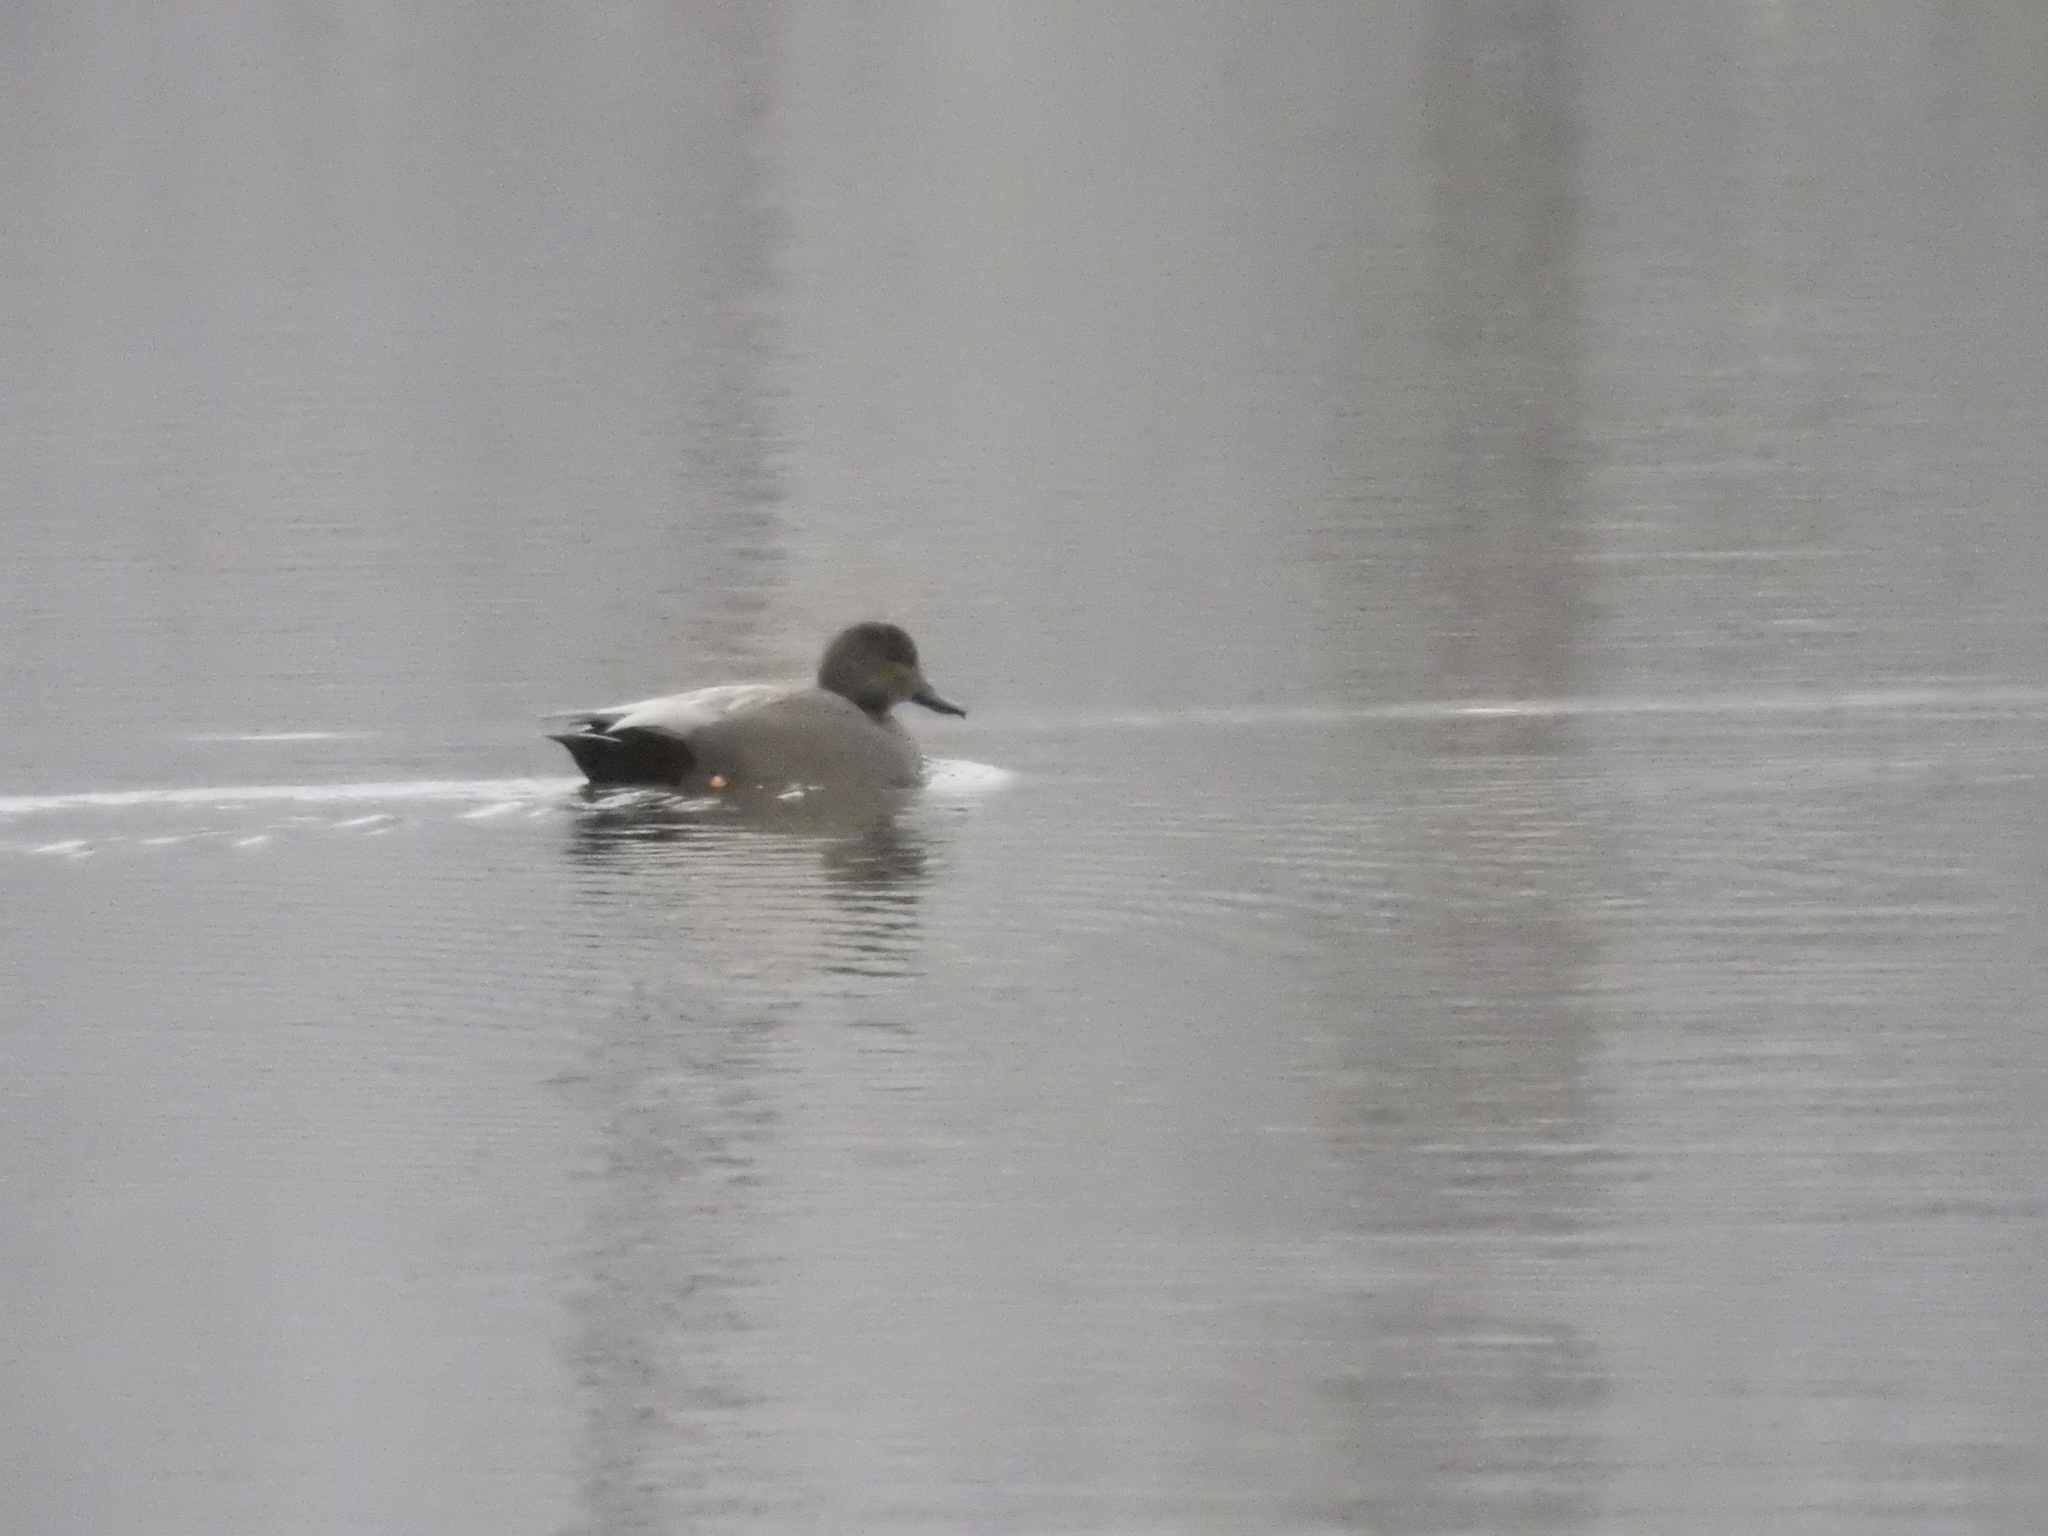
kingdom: Animalia
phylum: Chordata
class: Aves
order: Anseriformes
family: Anatidae
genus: Mareca
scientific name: Mareca strepera
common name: Gadwall
